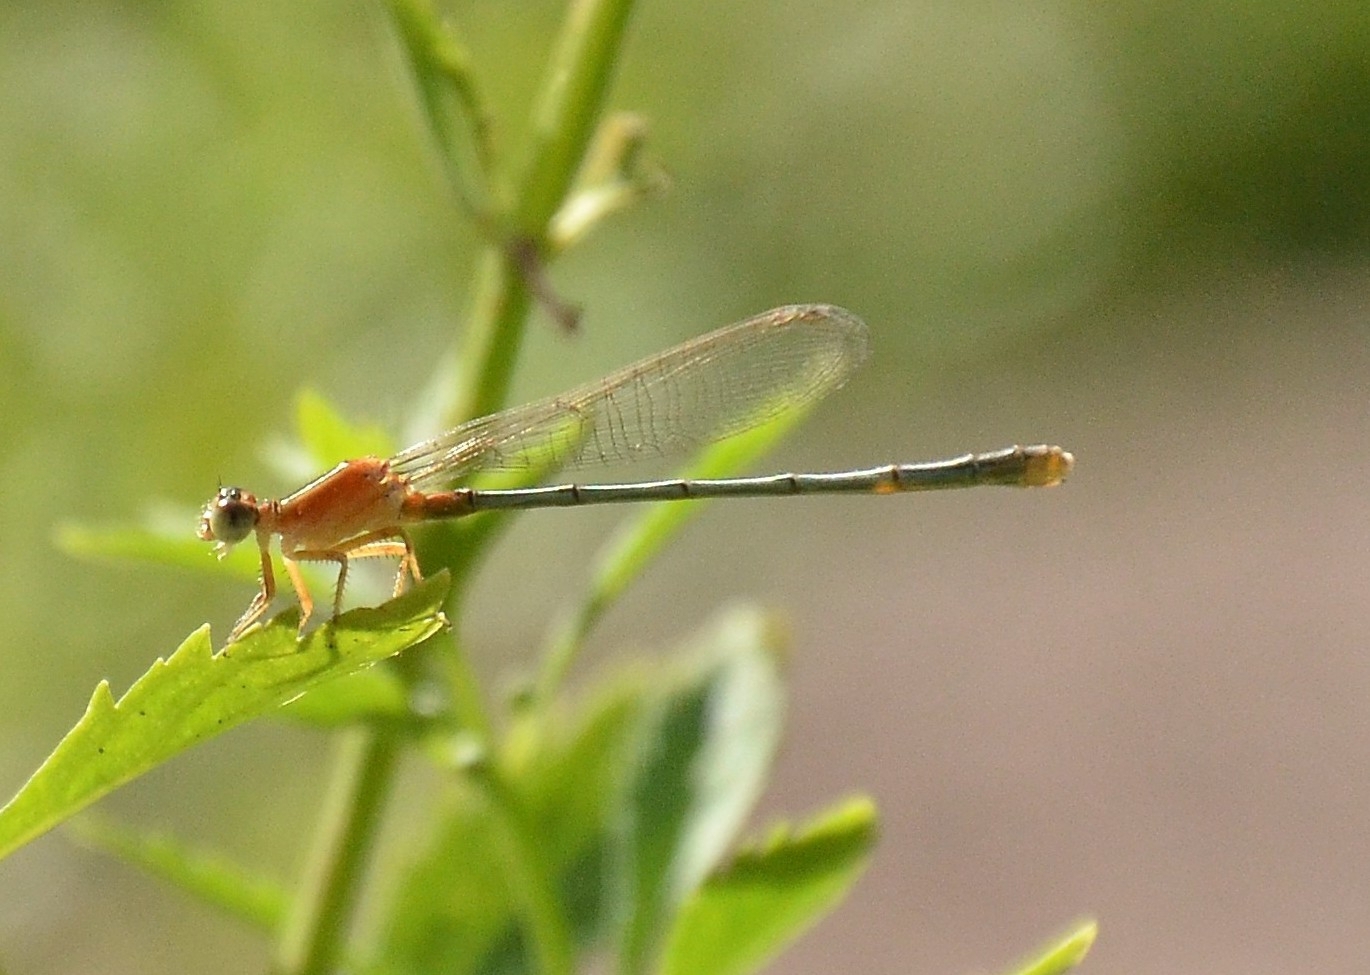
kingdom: Animalia
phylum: Arthropoda
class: Insecta
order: Odonata
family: Coenagrionidae
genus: Ischnura
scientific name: Ischnura senegalensis
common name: Tropical bluetail
